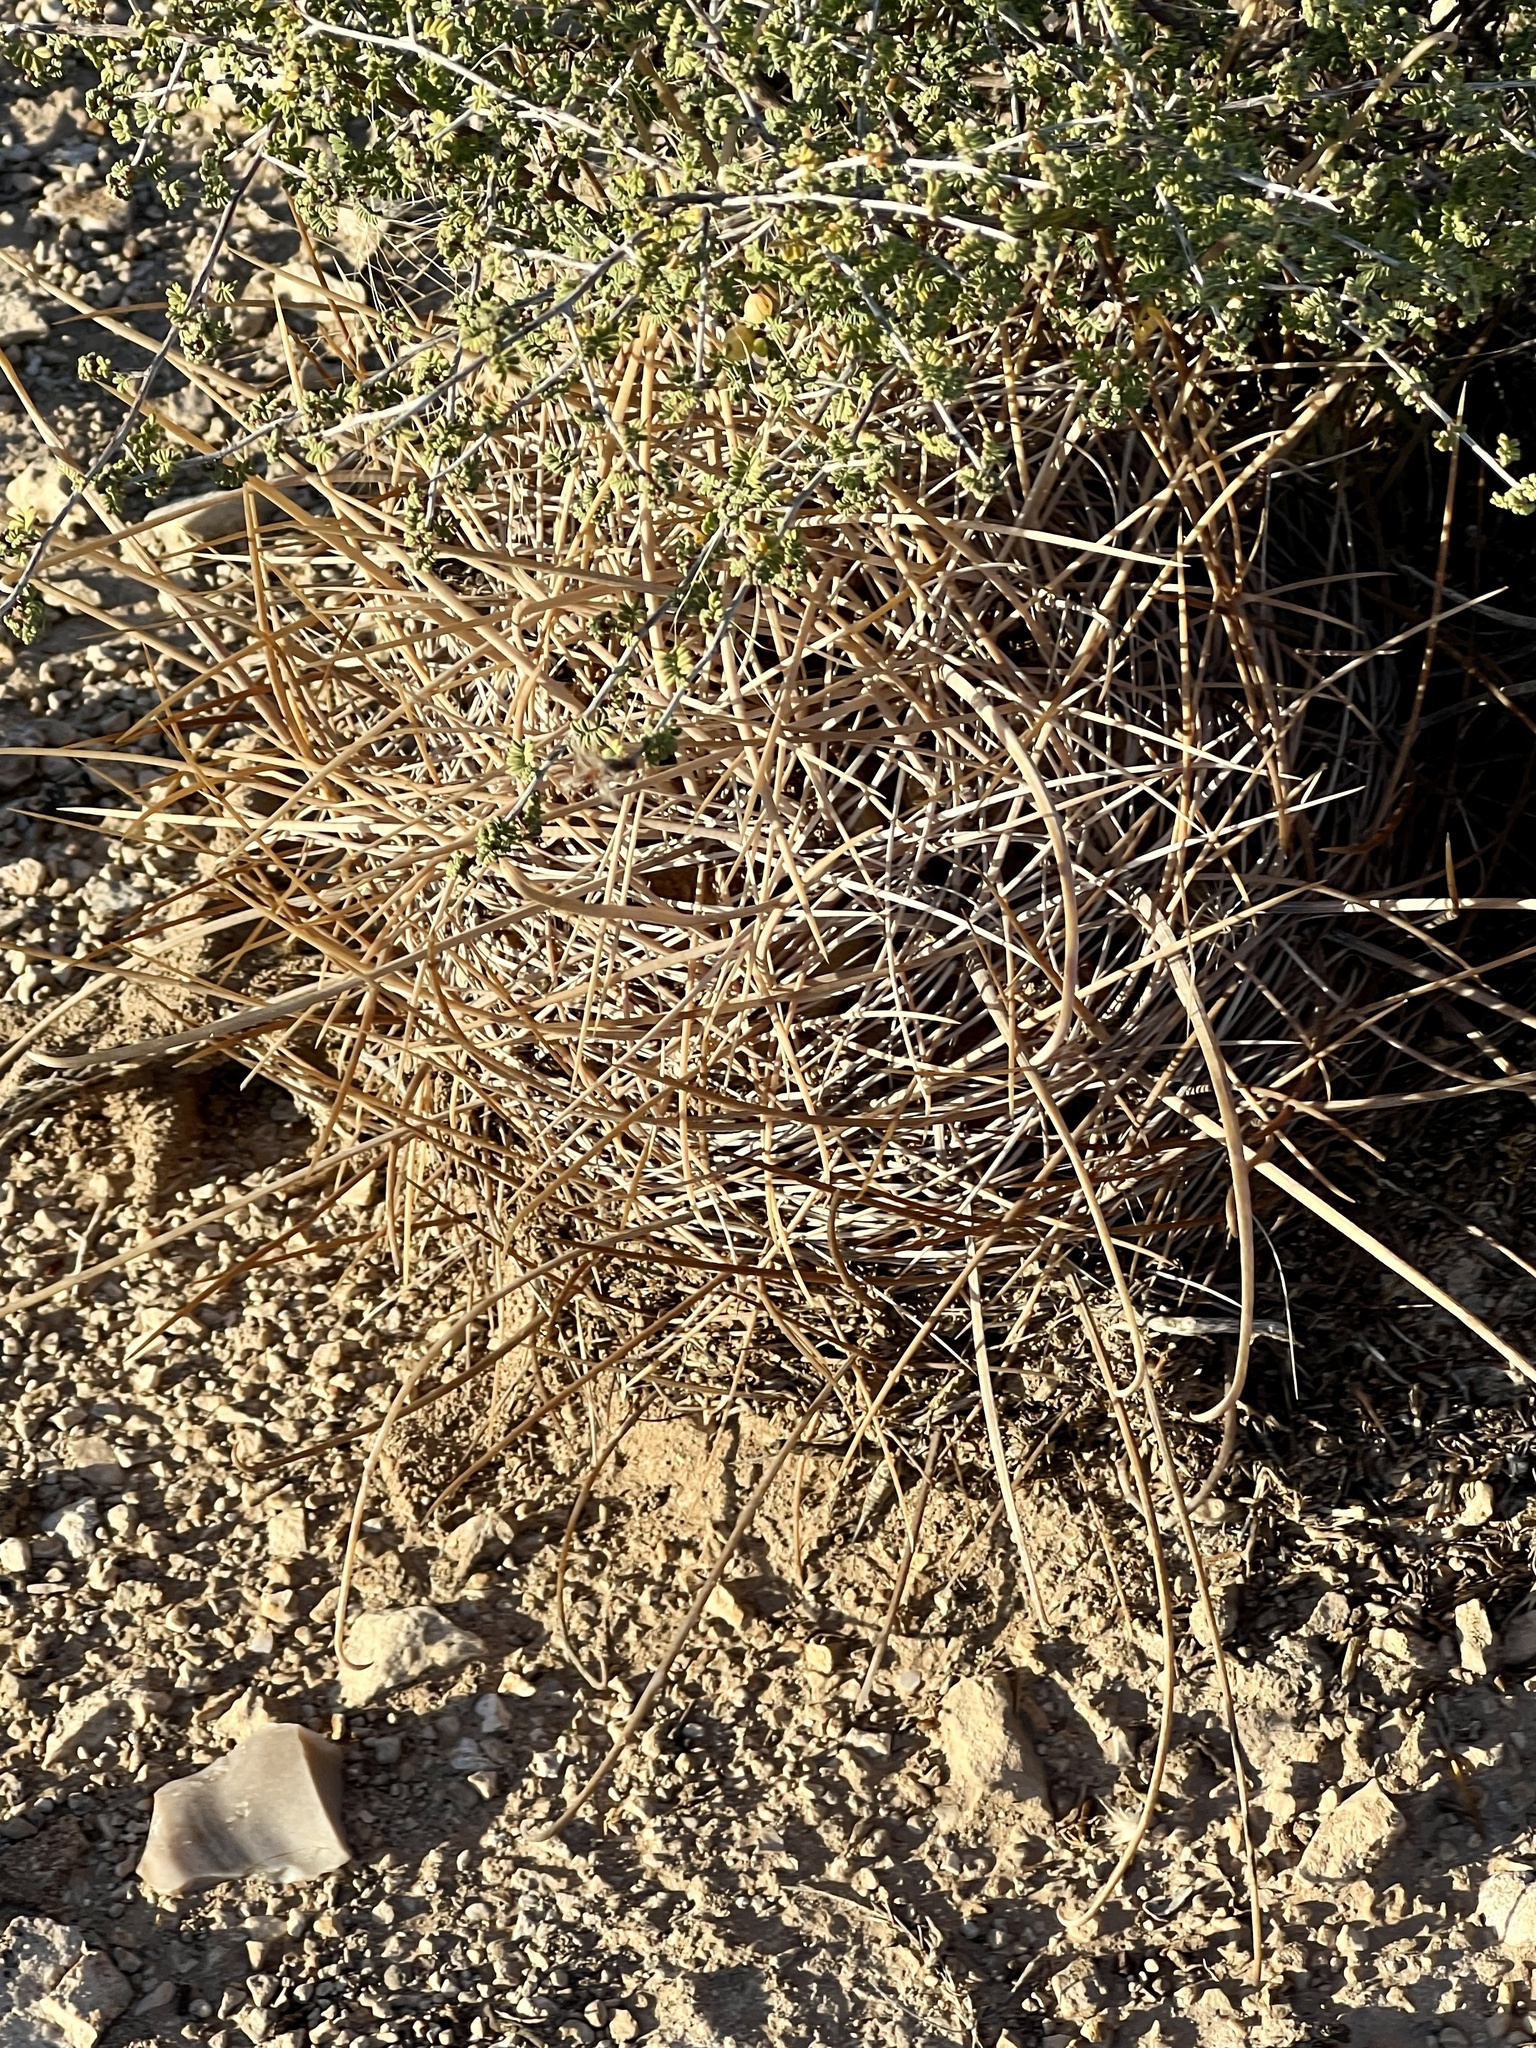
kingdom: Plantae
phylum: Tracheophyta
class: Magnoliopsida
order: Caryophyllales
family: Cactaceae
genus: Bisnaga
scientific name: Bisnaga hamatacantha
